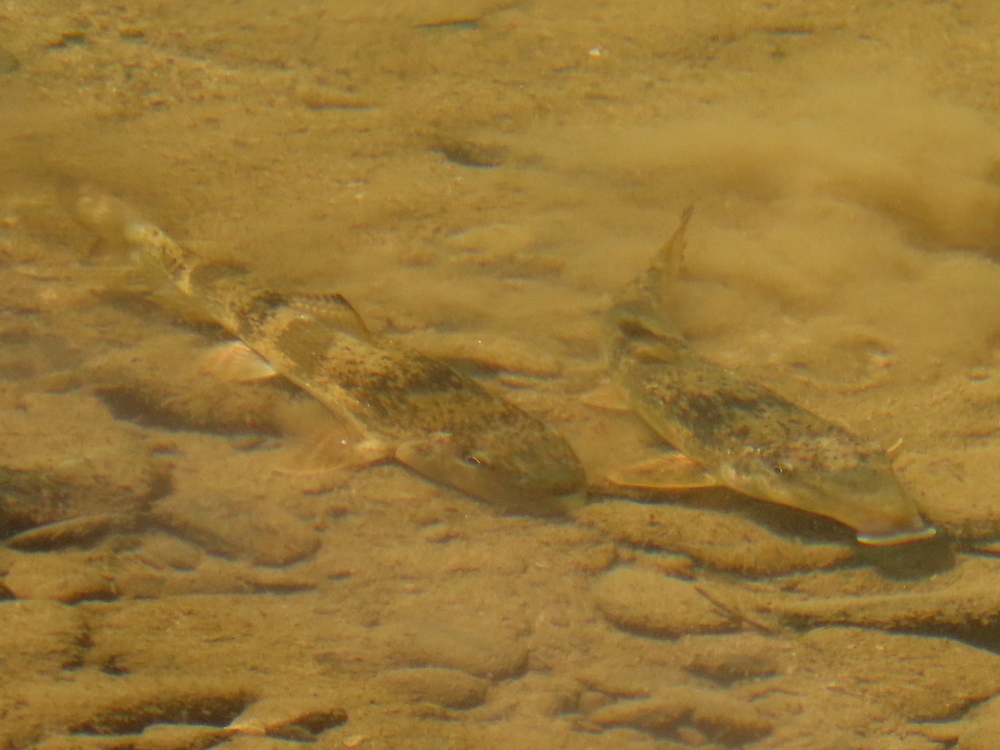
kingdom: Animalia
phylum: Chordata
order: Cypriniformes
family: Catostomidae
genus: Hypentelium
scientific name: Hypentelium nigricans
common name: Northern hog sucker
